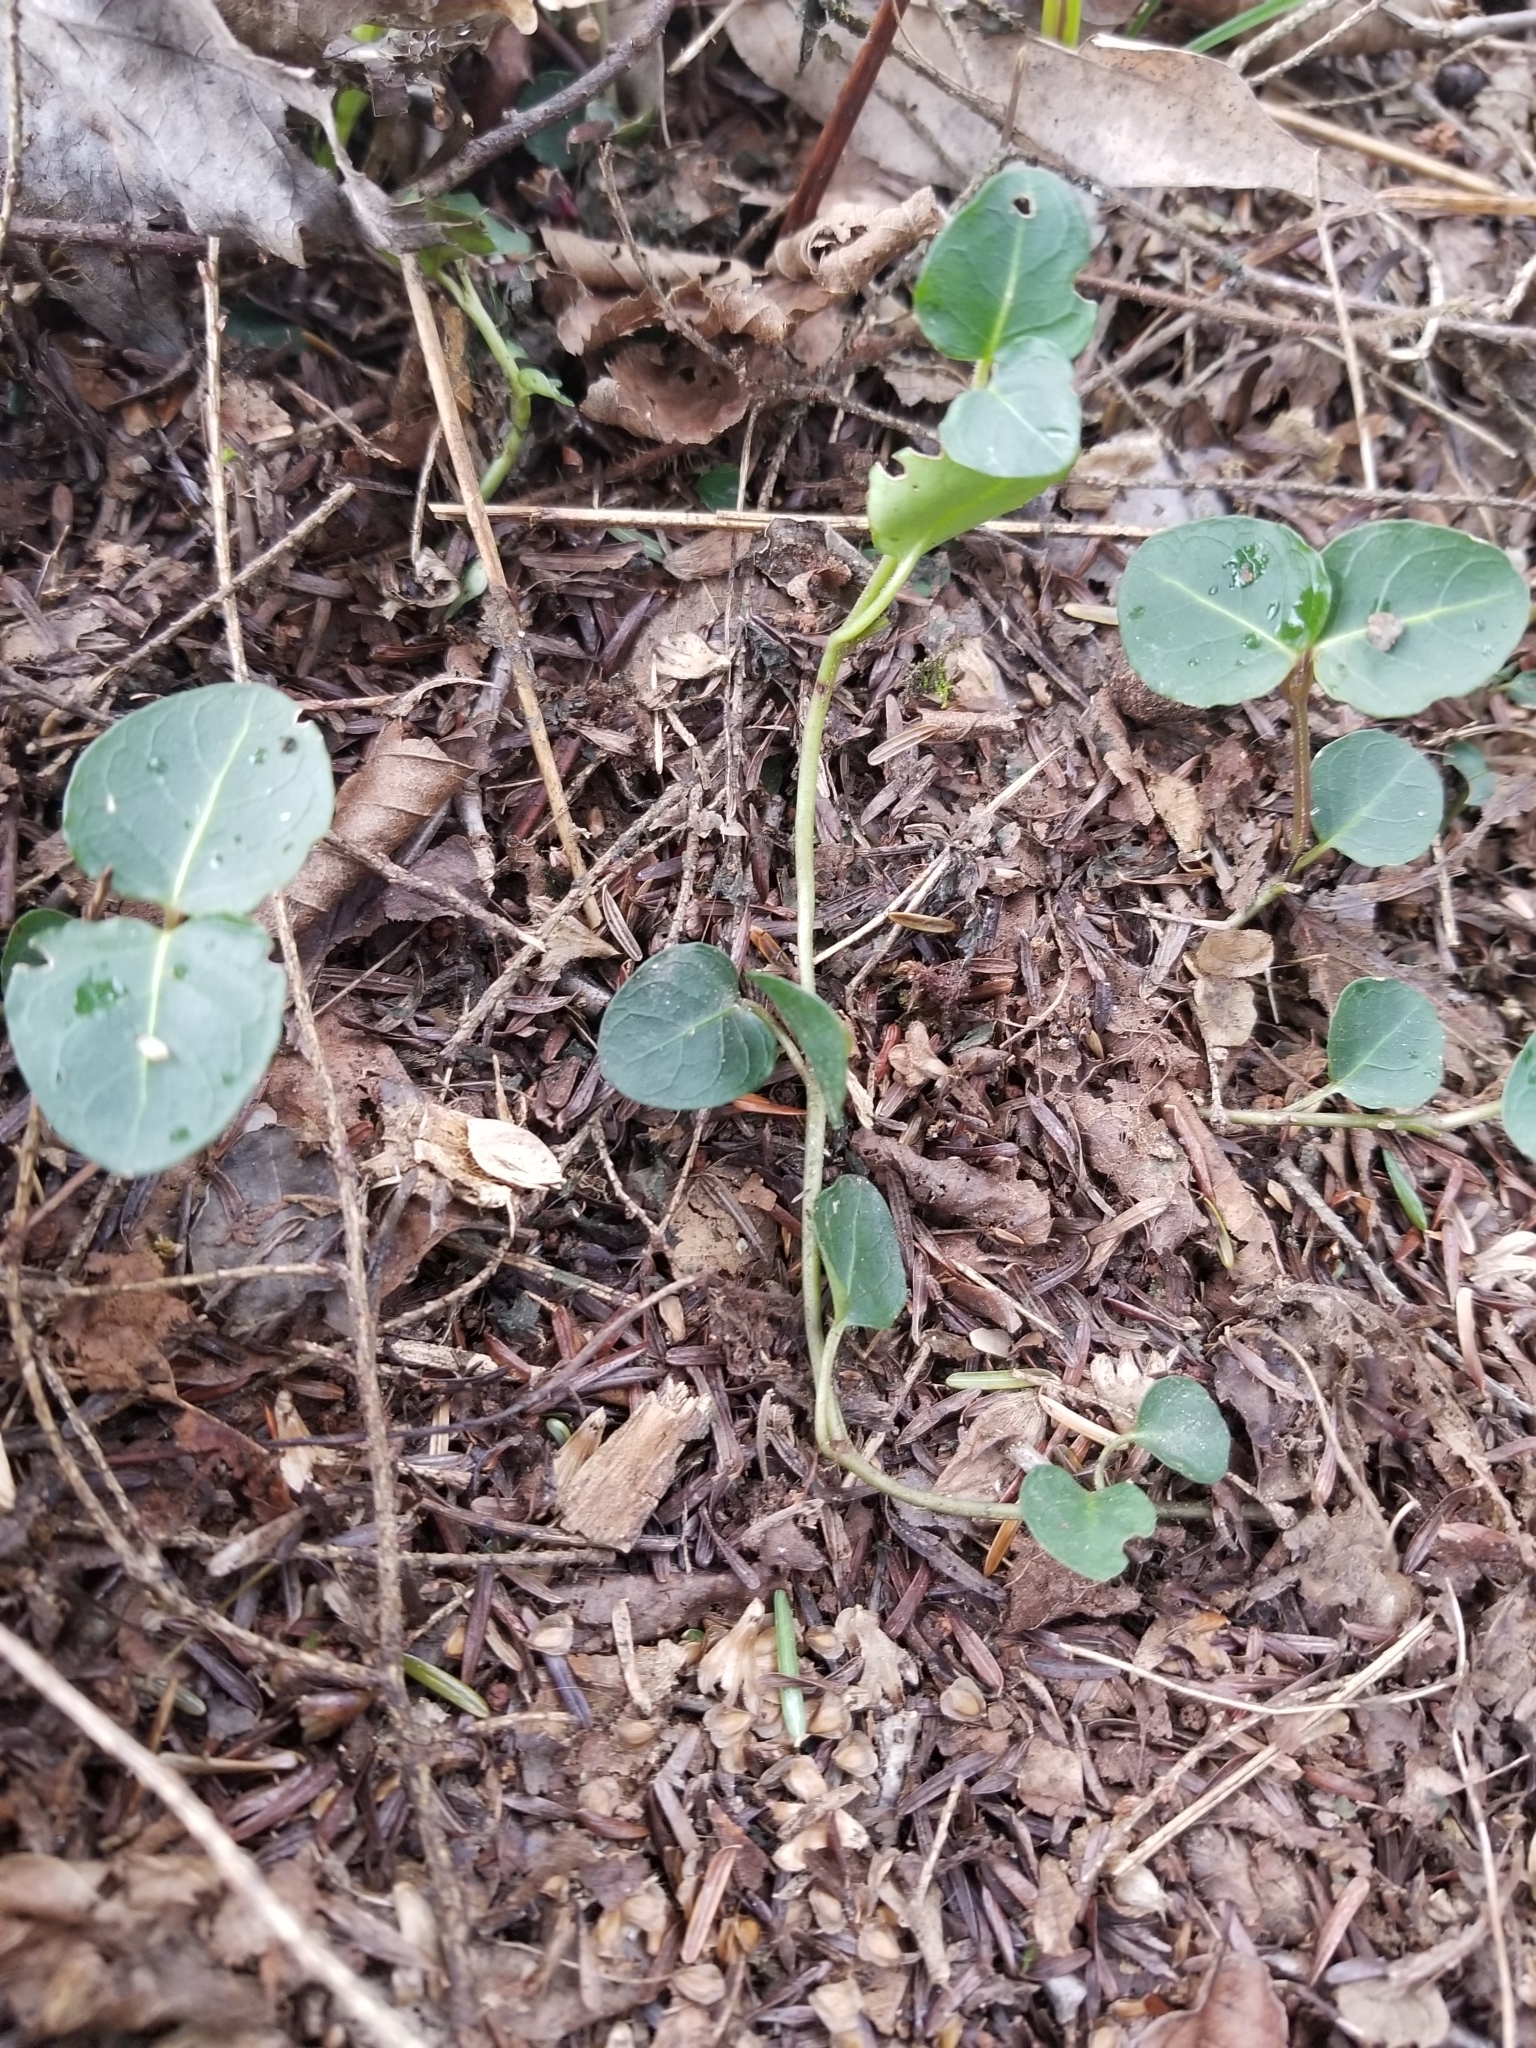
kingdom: Plantae
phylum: Tracheophyta
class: Magnoliopsida
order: Gentianales
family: Rubiaceae
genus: Mitchella
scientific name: Mitchella repens
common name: Partridge-berry
